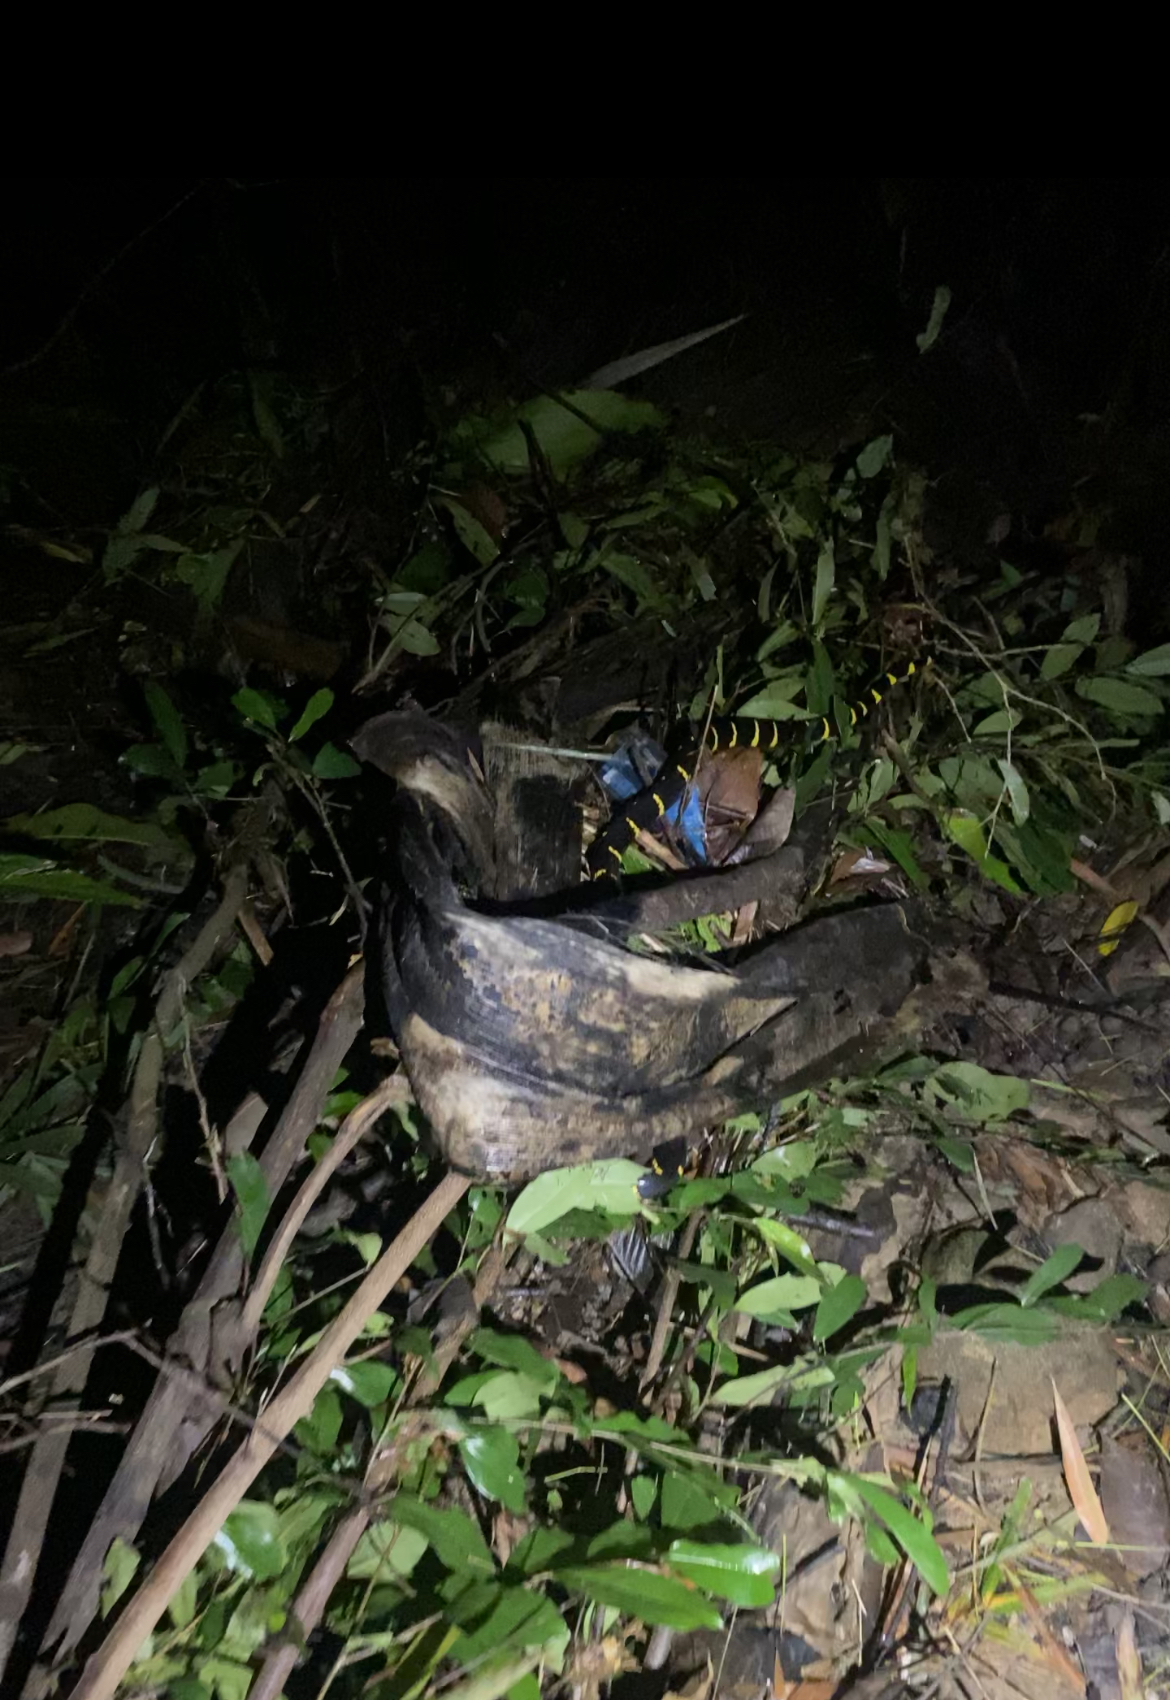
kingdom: Animalia
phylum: Chordata
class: Squamata
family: Colubridae
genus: Boiga
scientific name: Boiga melanota
